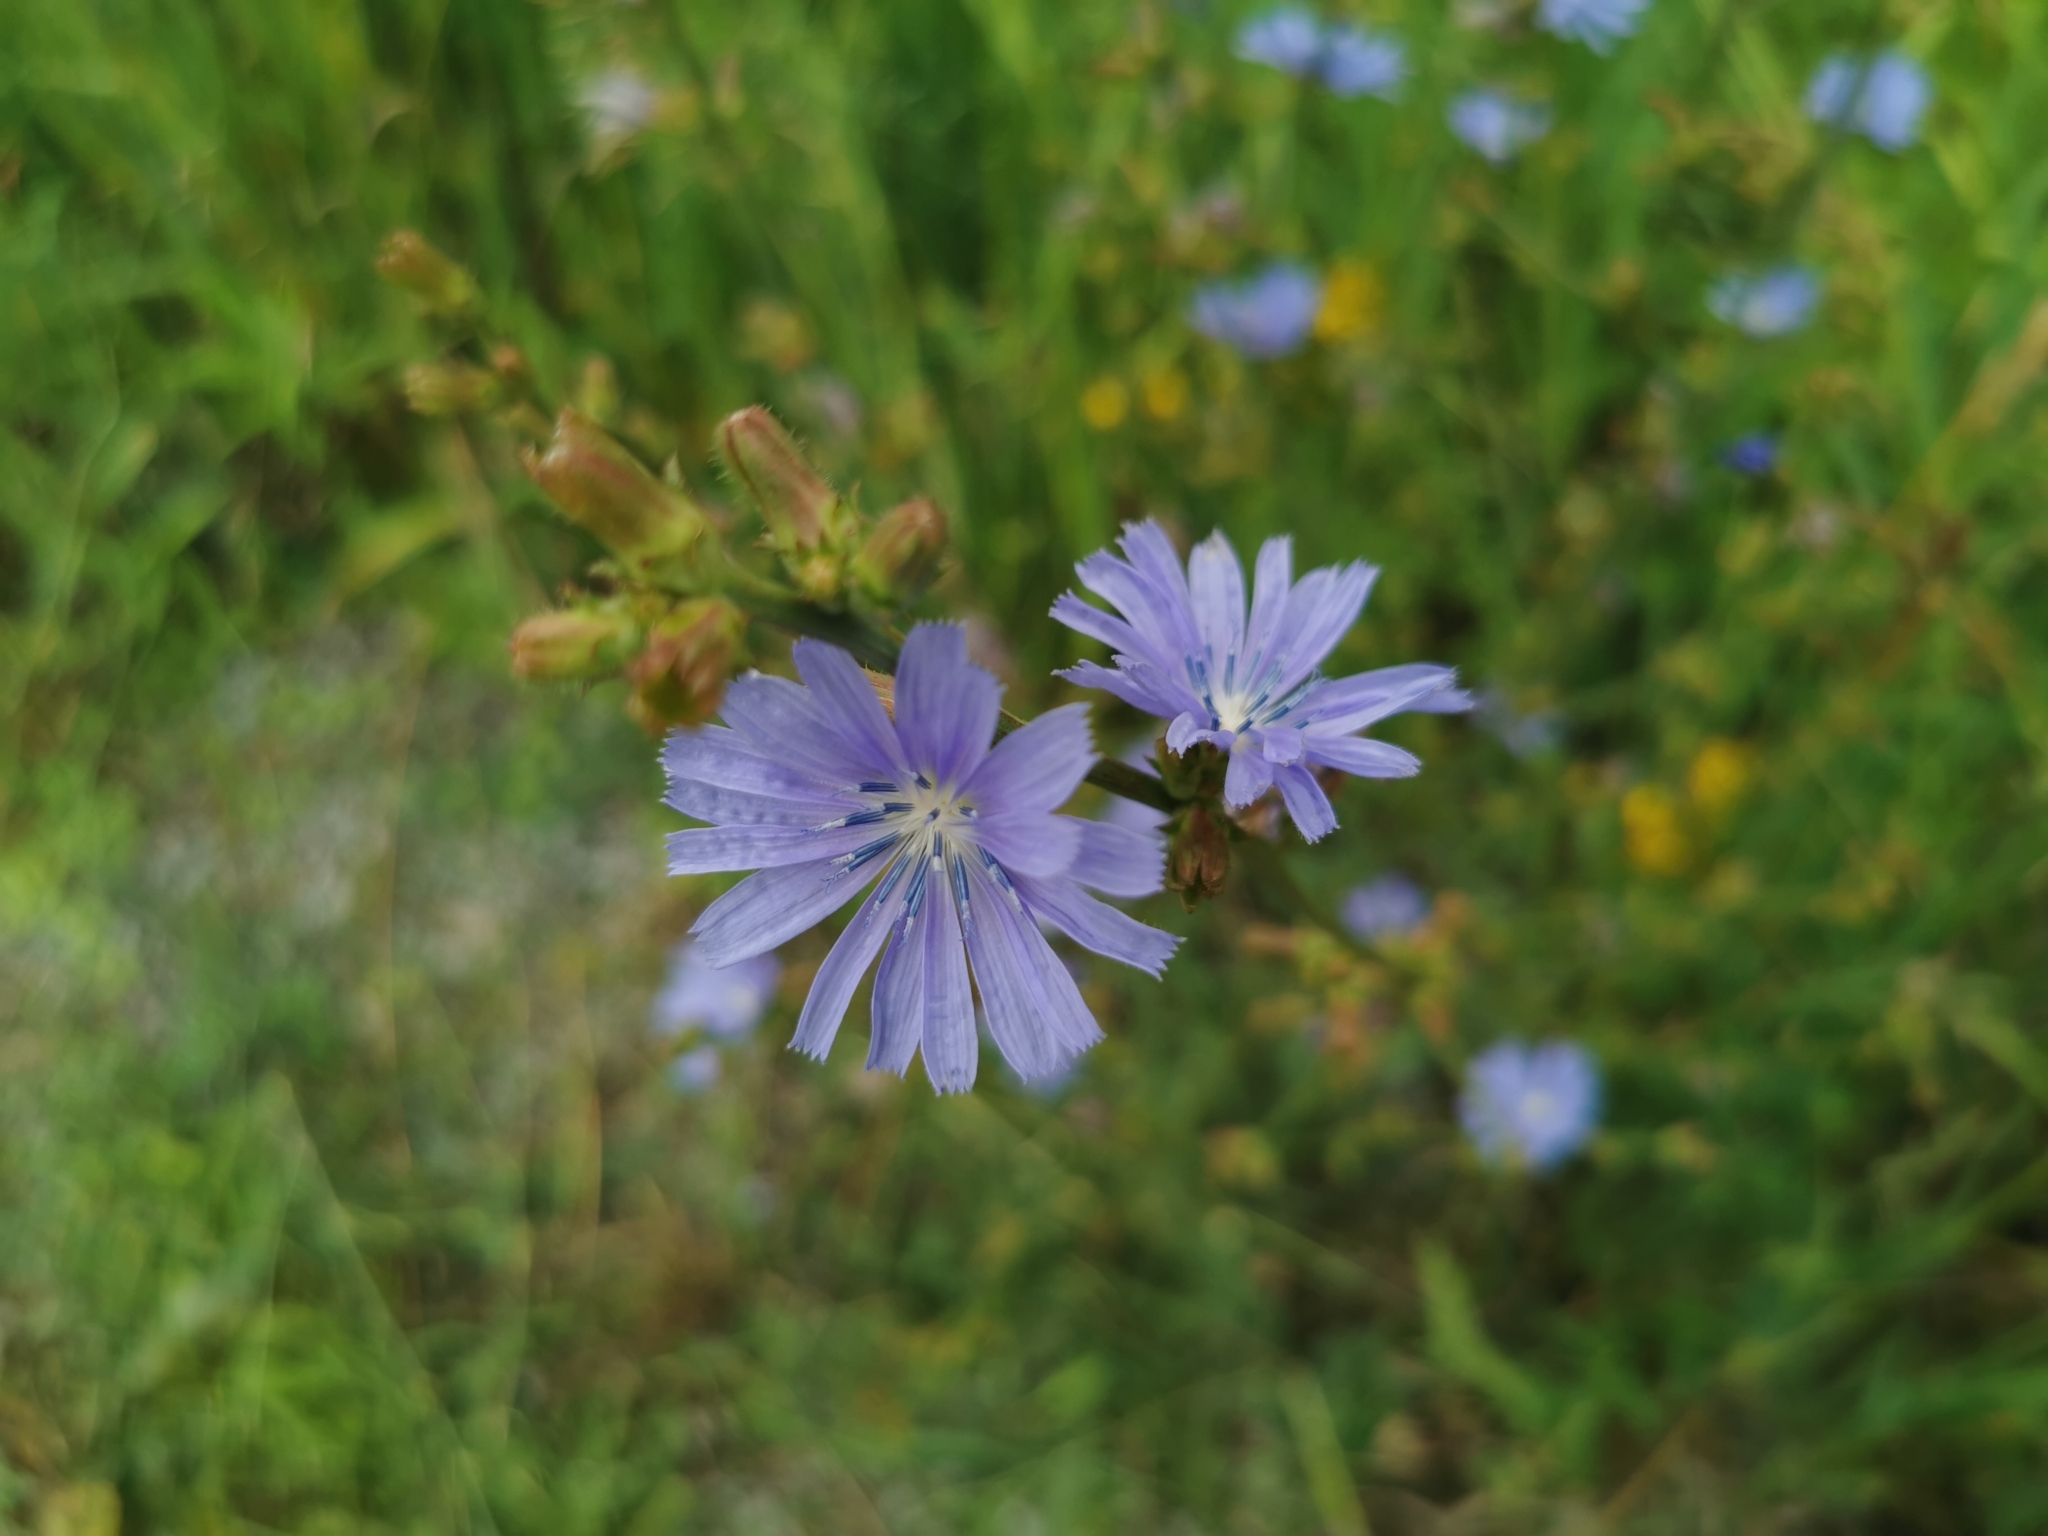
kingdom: Plantae
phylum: Tracheophyta
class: Magnoliopsida
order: Asterales
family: Asteraceae
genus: Cichorium
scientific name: Cichorium intybus
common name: Chicory
